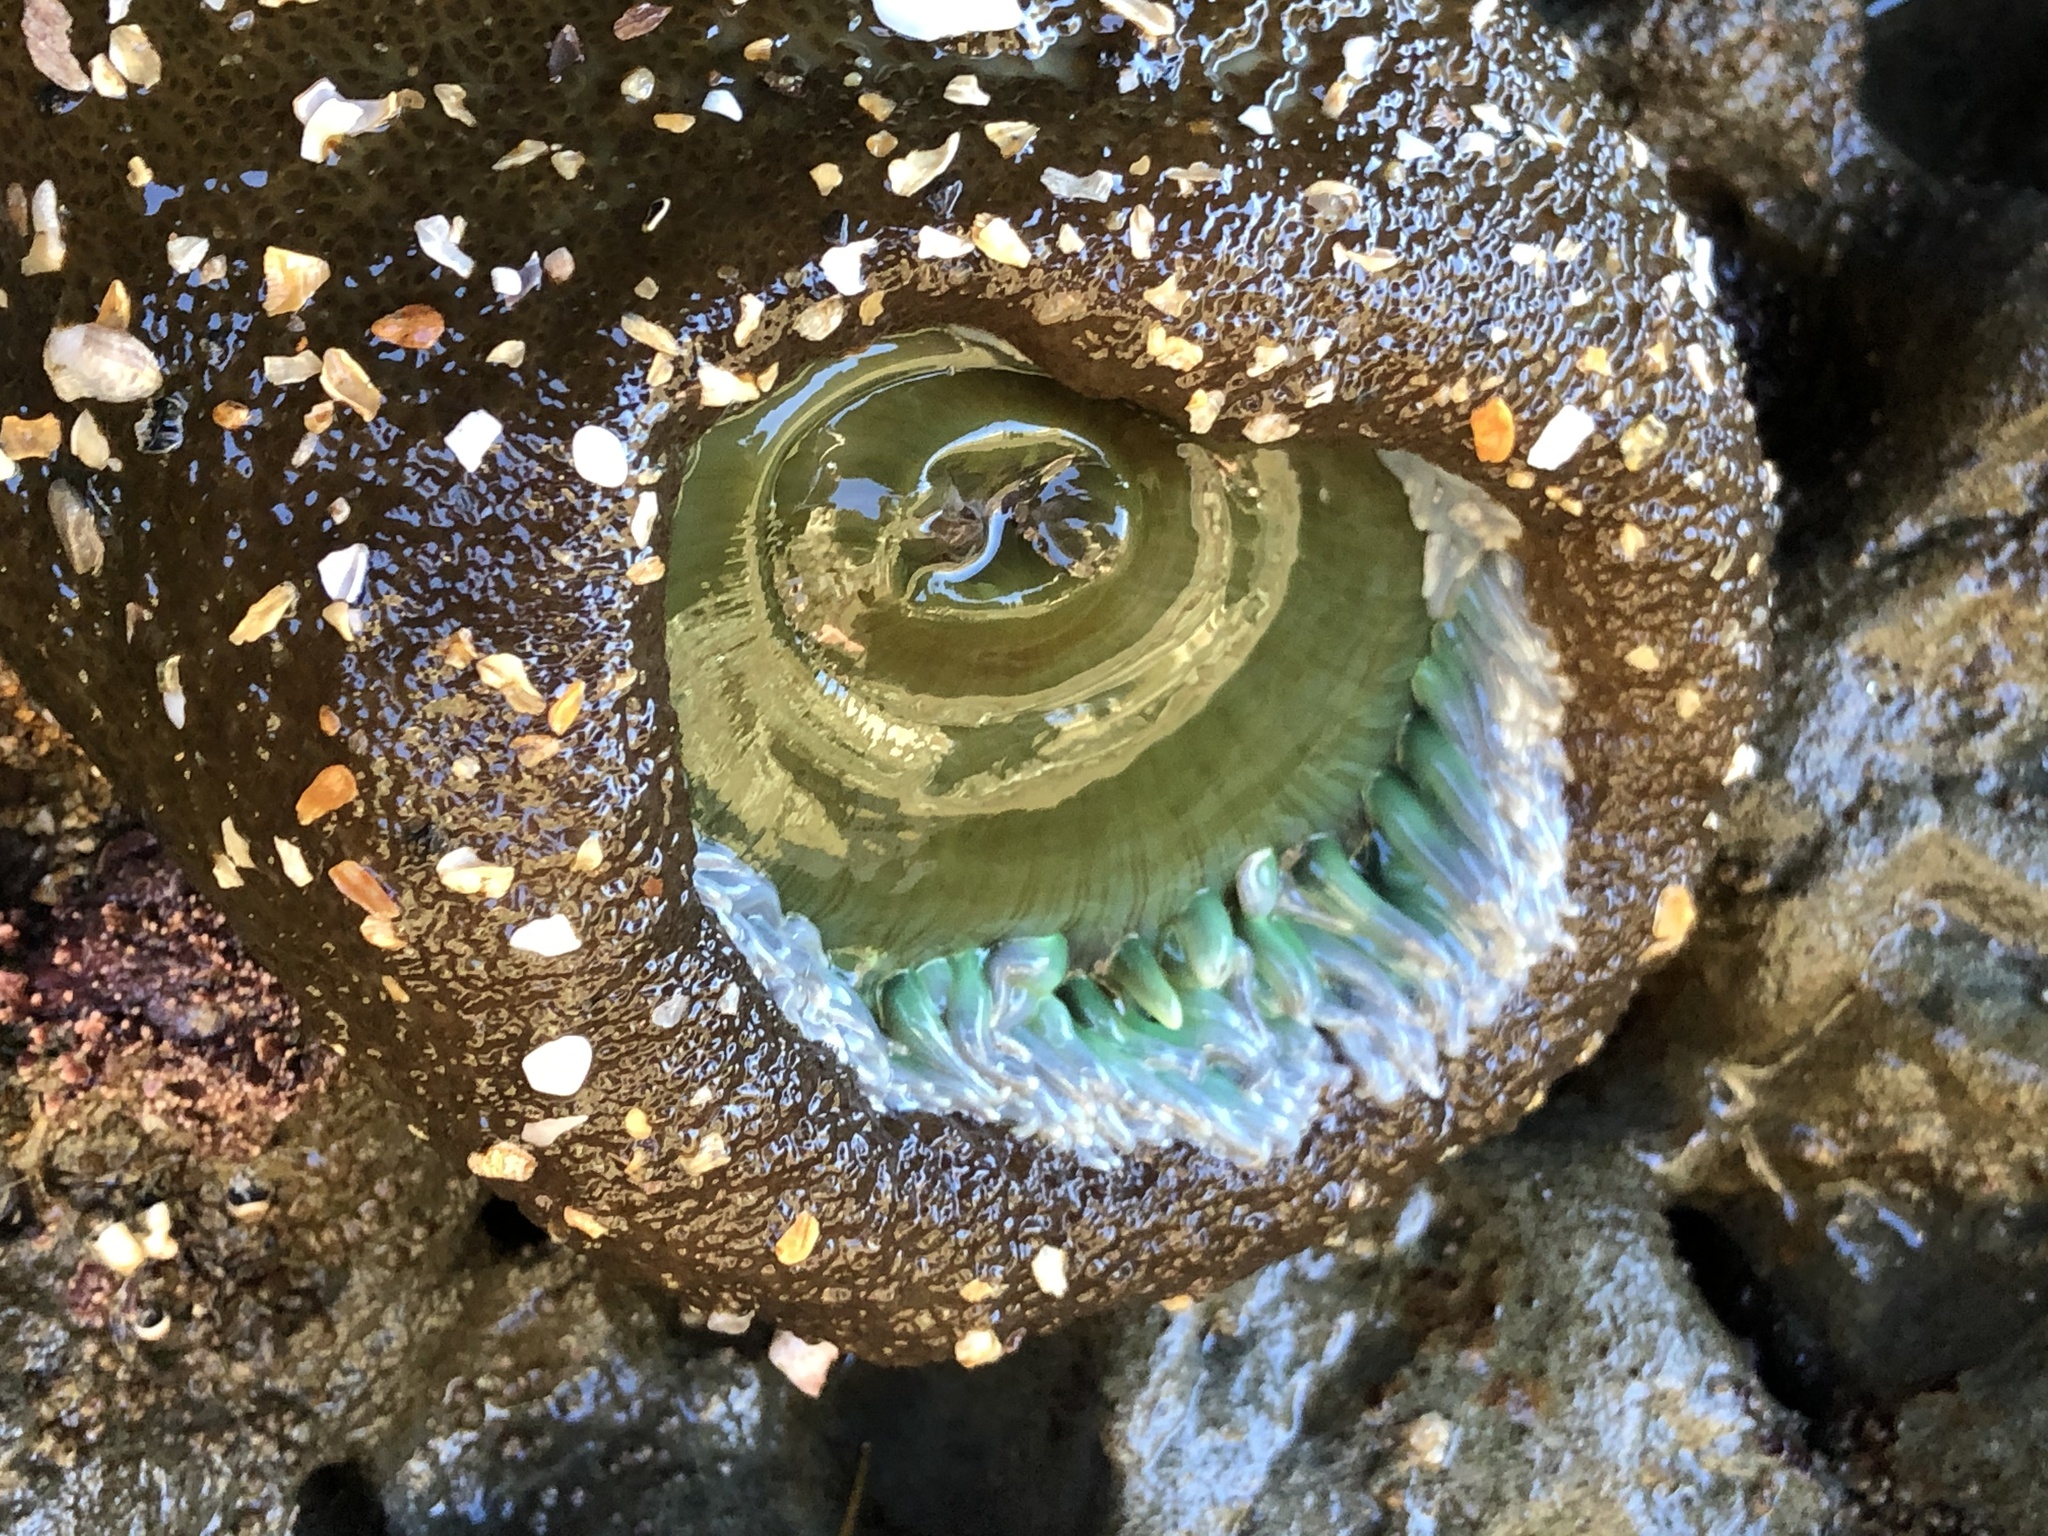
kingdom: Animalia
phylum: Cnidaria
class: Anthozoa
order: Actiniaria
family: Actiniidae
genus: Anthopleura
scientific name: Anthopleura xanthogrammica
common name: Giant green anemone
